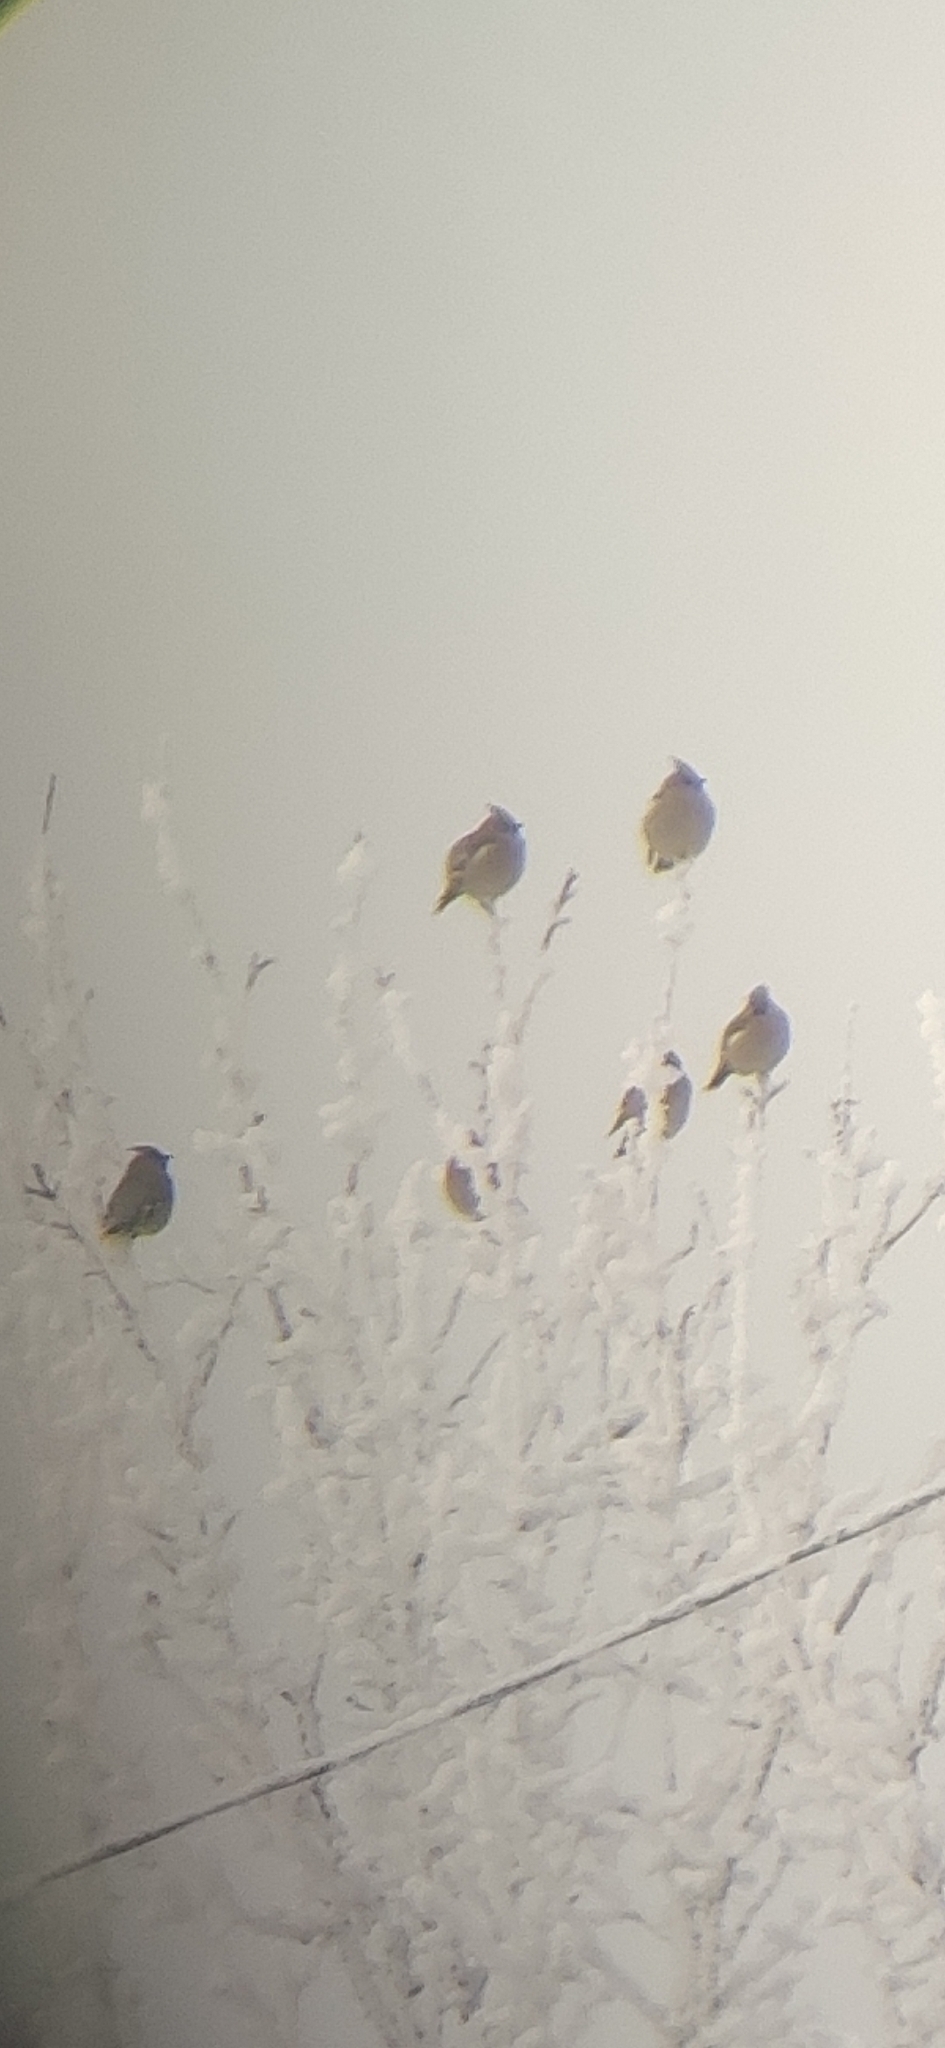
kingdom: Animalia
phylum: Chordata
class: Aves
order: Passeriformes
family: Bombycillidae
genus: Bombycilla
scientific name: Bombycilla garrulus
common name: Bohemian waxwing
